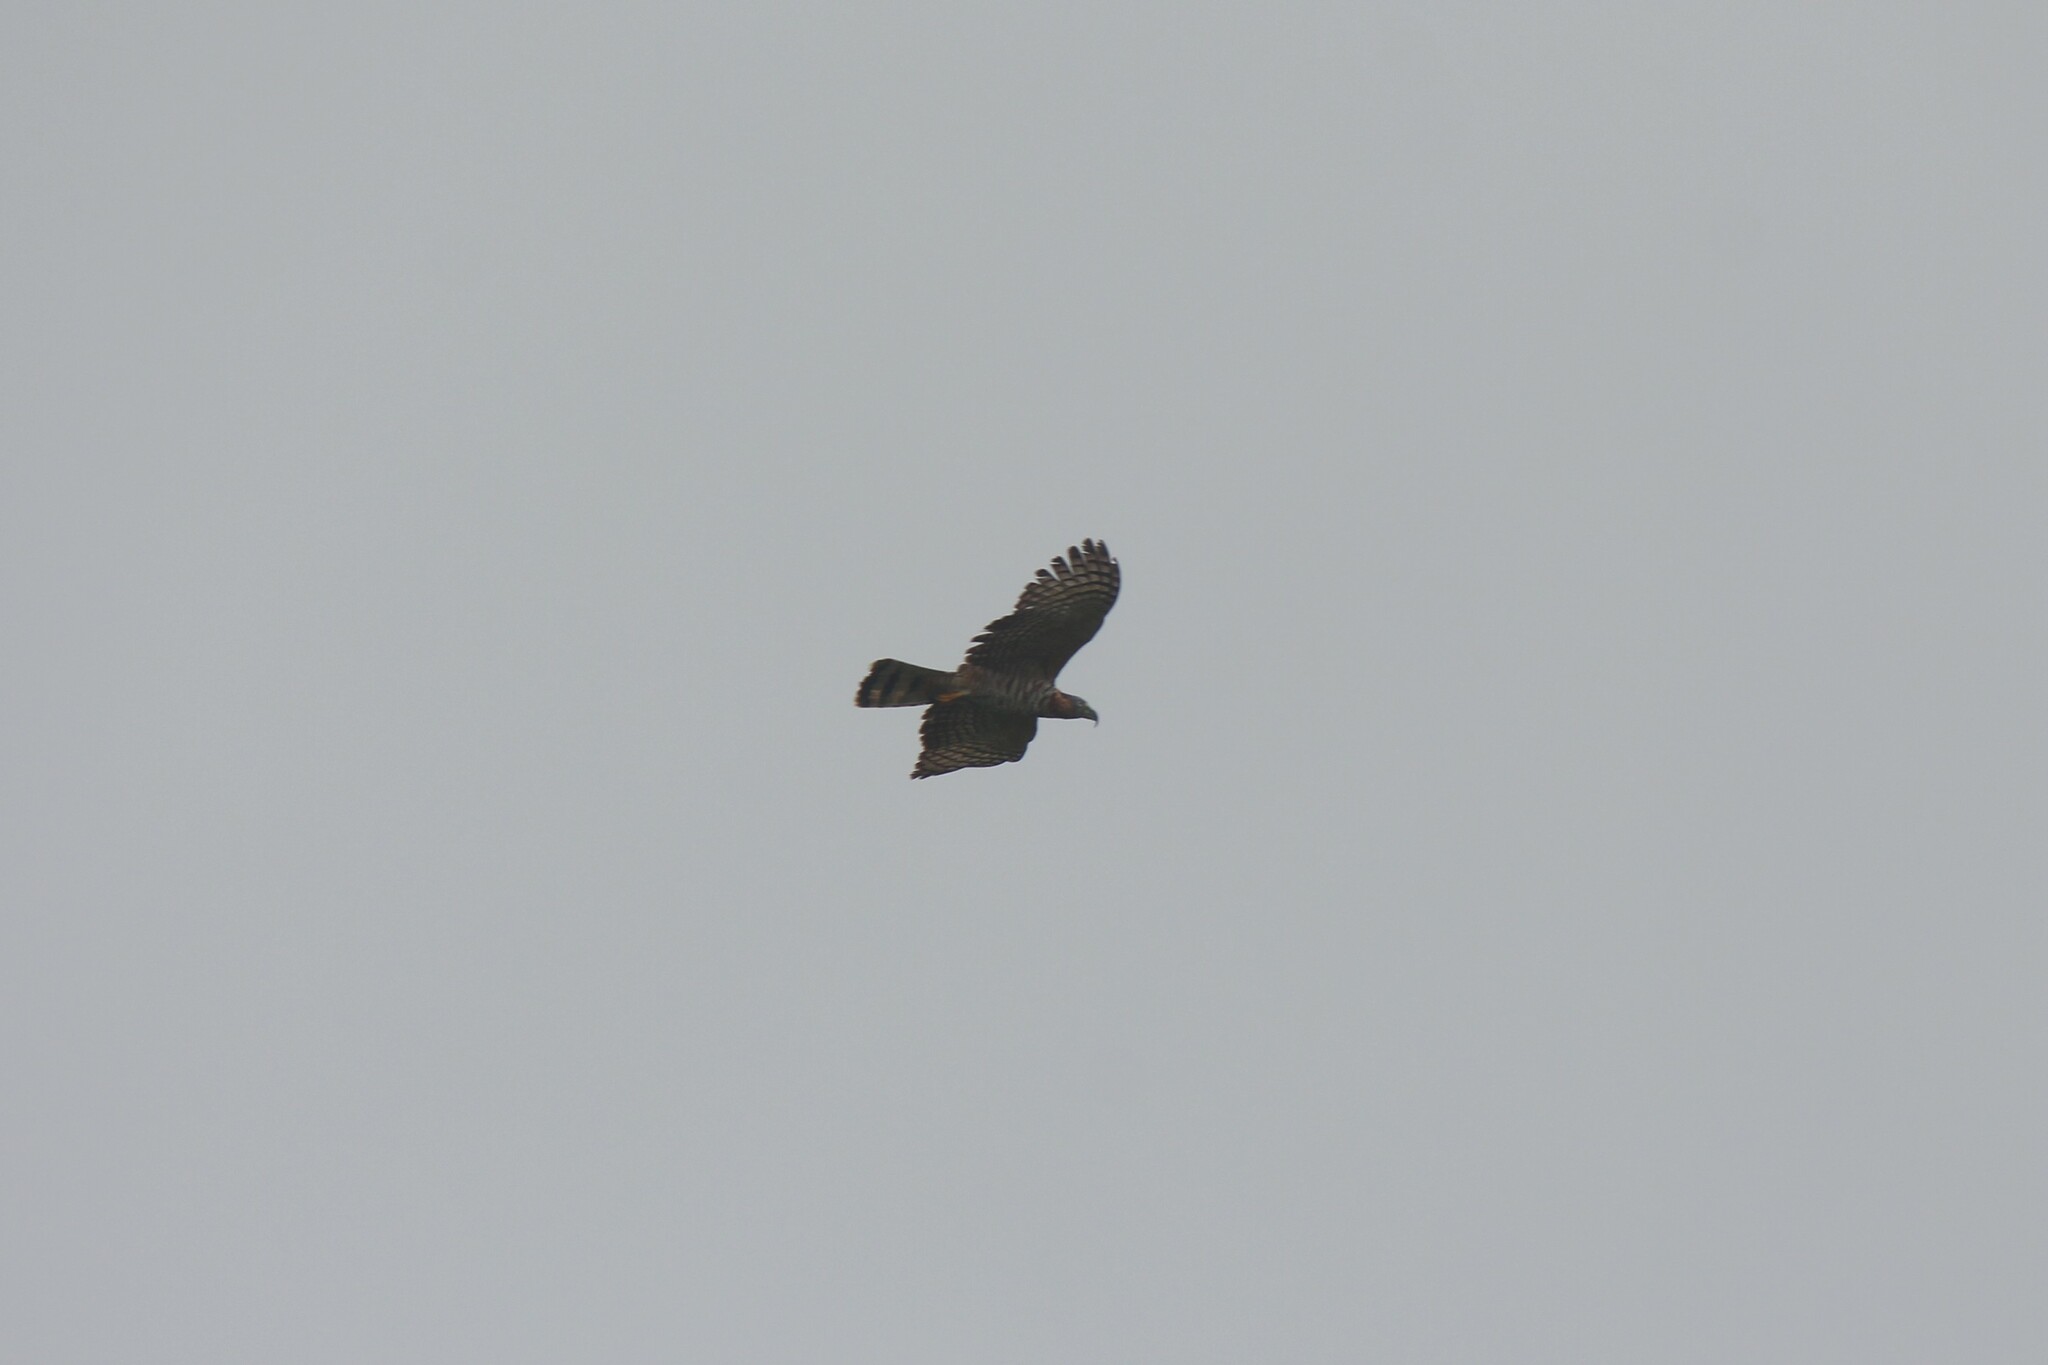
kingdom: Animalia
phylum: Chordata
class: Aves
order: Accipitriformes
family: Accipitridae
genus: Chondrohierax
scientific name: Chondrohierax uncinatus
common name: Hook-billed kite
